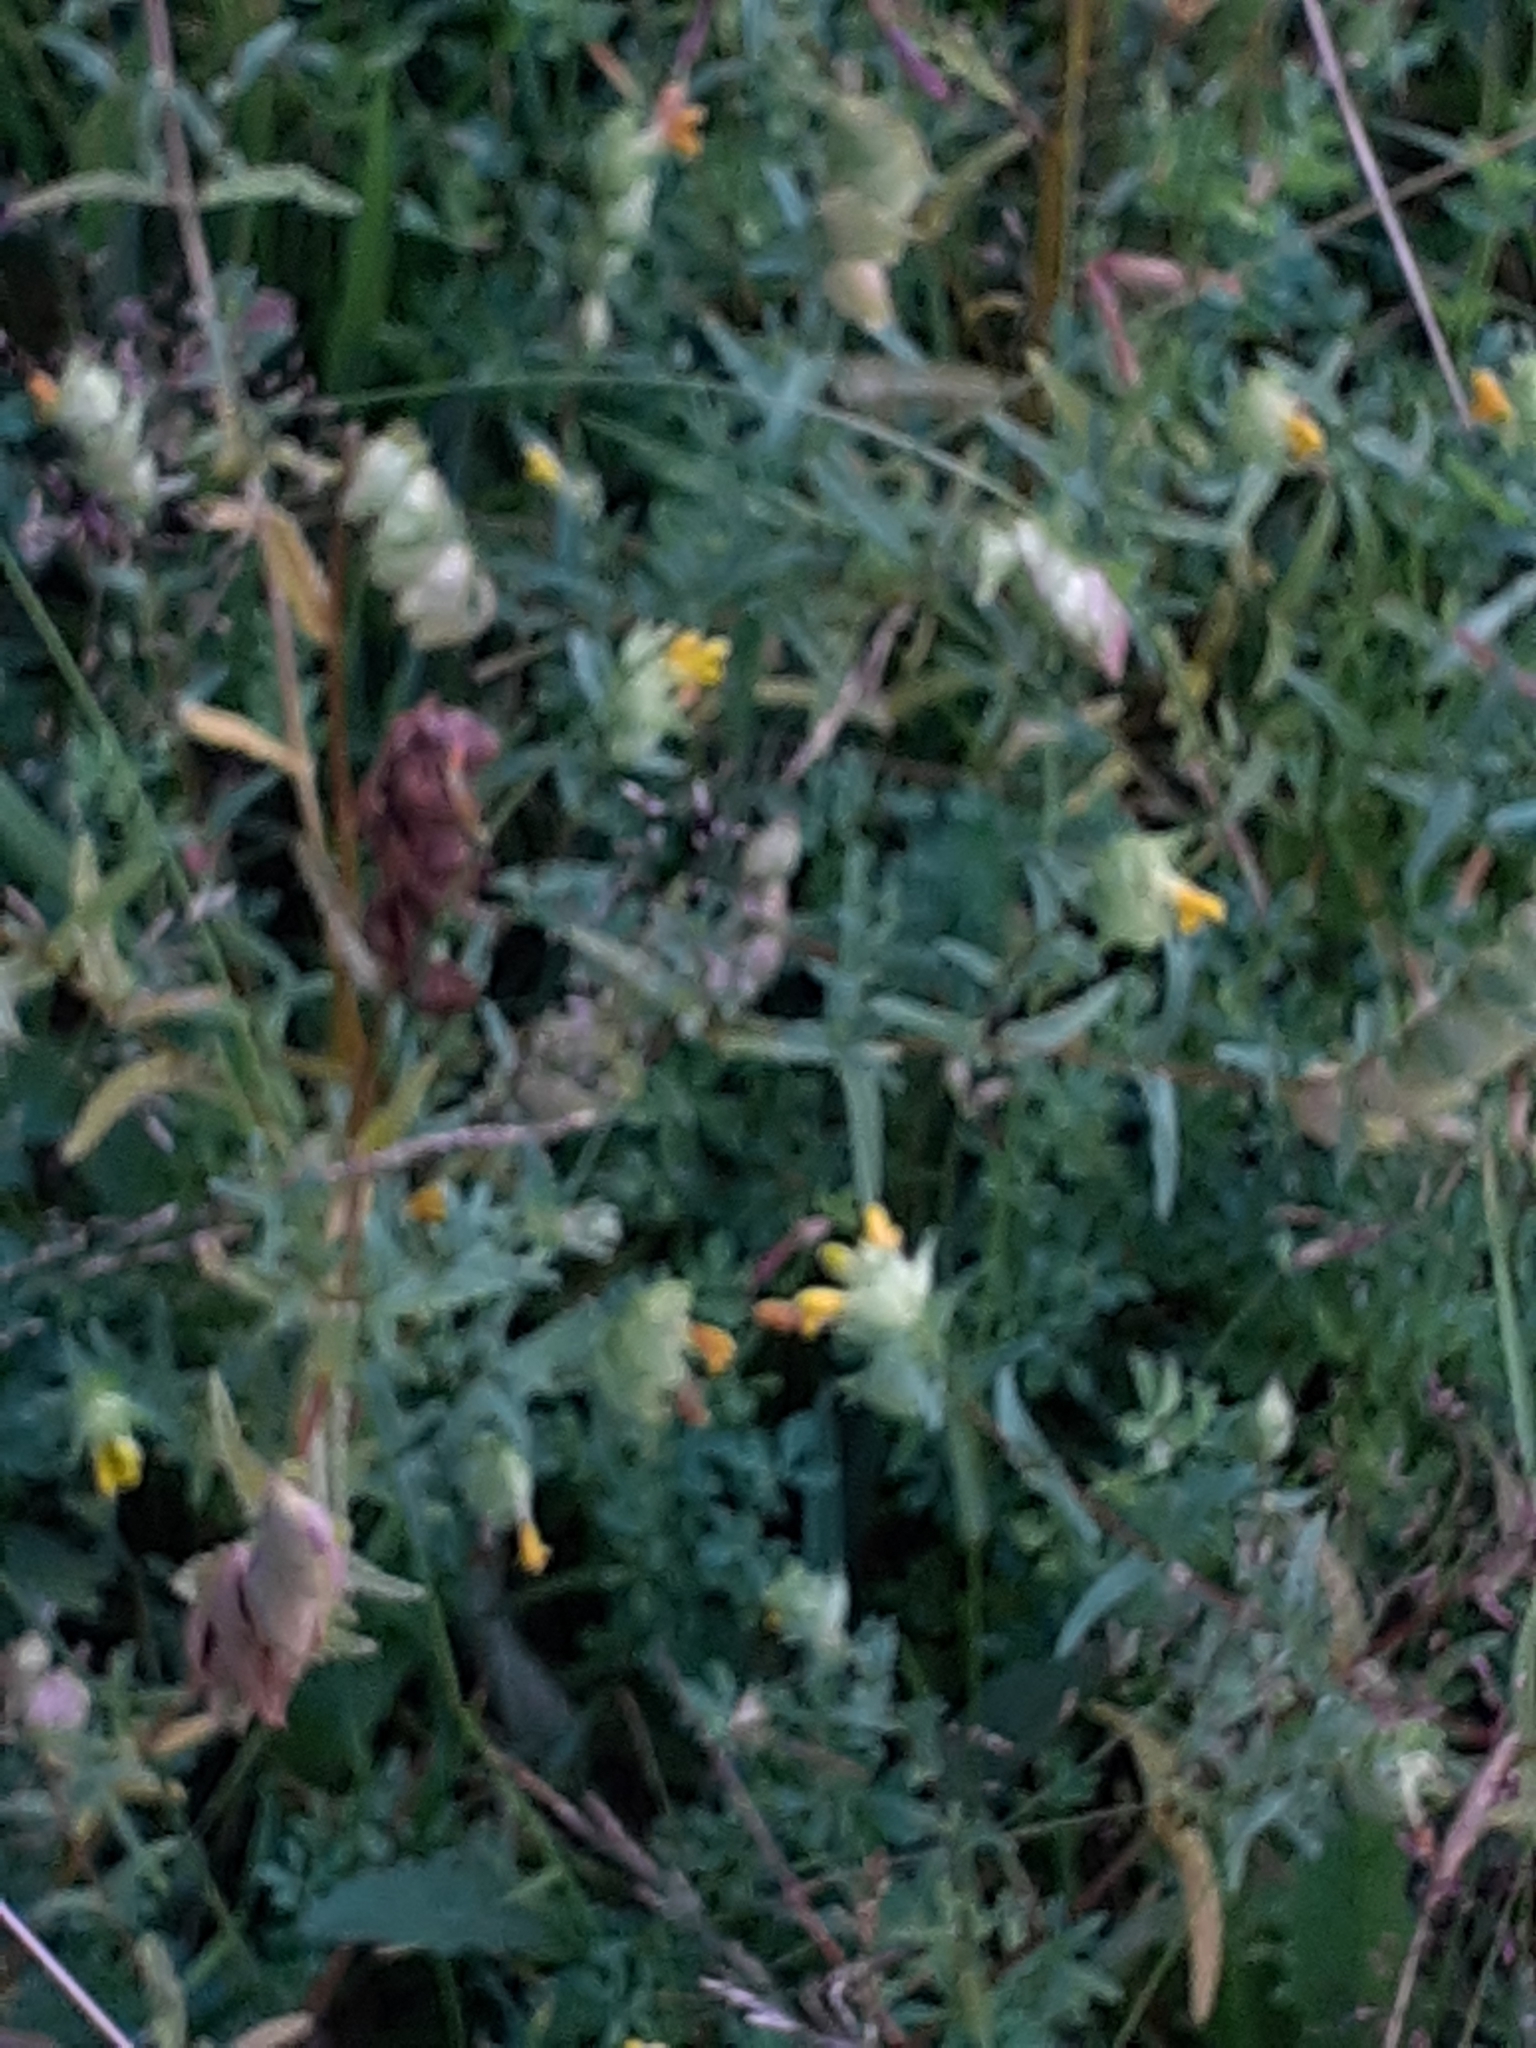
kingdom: Plantae
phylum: Tracheophyta
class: Magnoliopsida
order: Lamiales
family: Orobanchaceae
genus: Rhinanthus
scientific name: Rhinanthus minor
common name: Yellow-rattle
